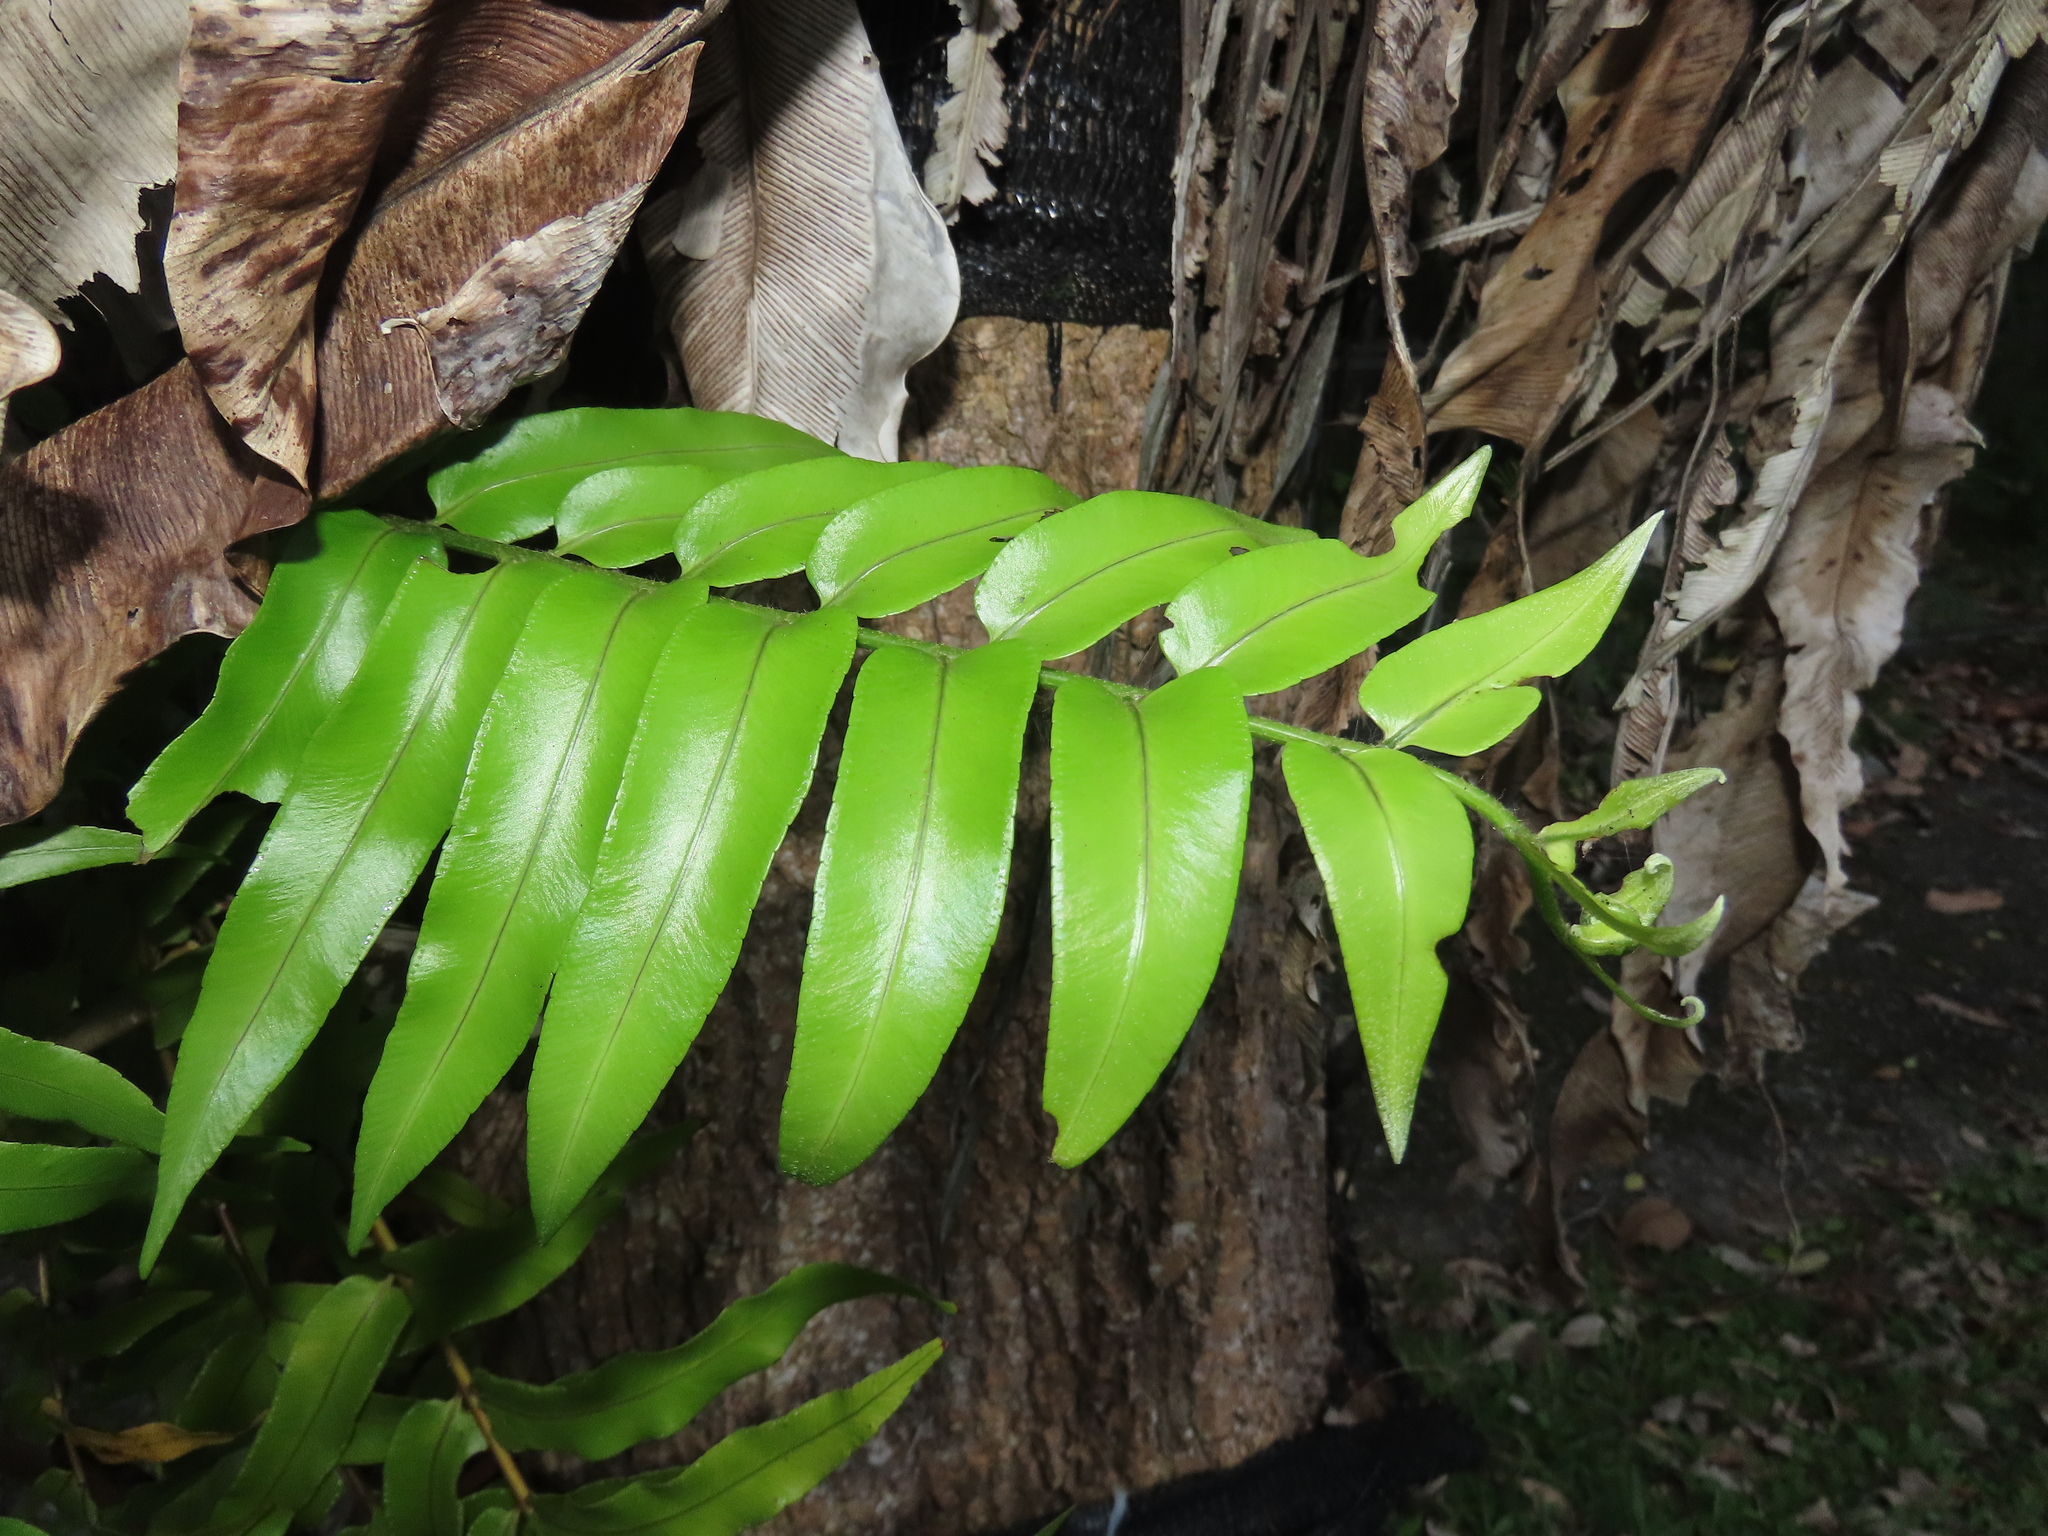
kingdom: Plantae
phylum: Tracheophyta
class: Polypodiopsida
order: Polypodiales
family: Nephrolepidaceae
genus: Nephrolepis
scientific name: Nephrolepis biserrata
